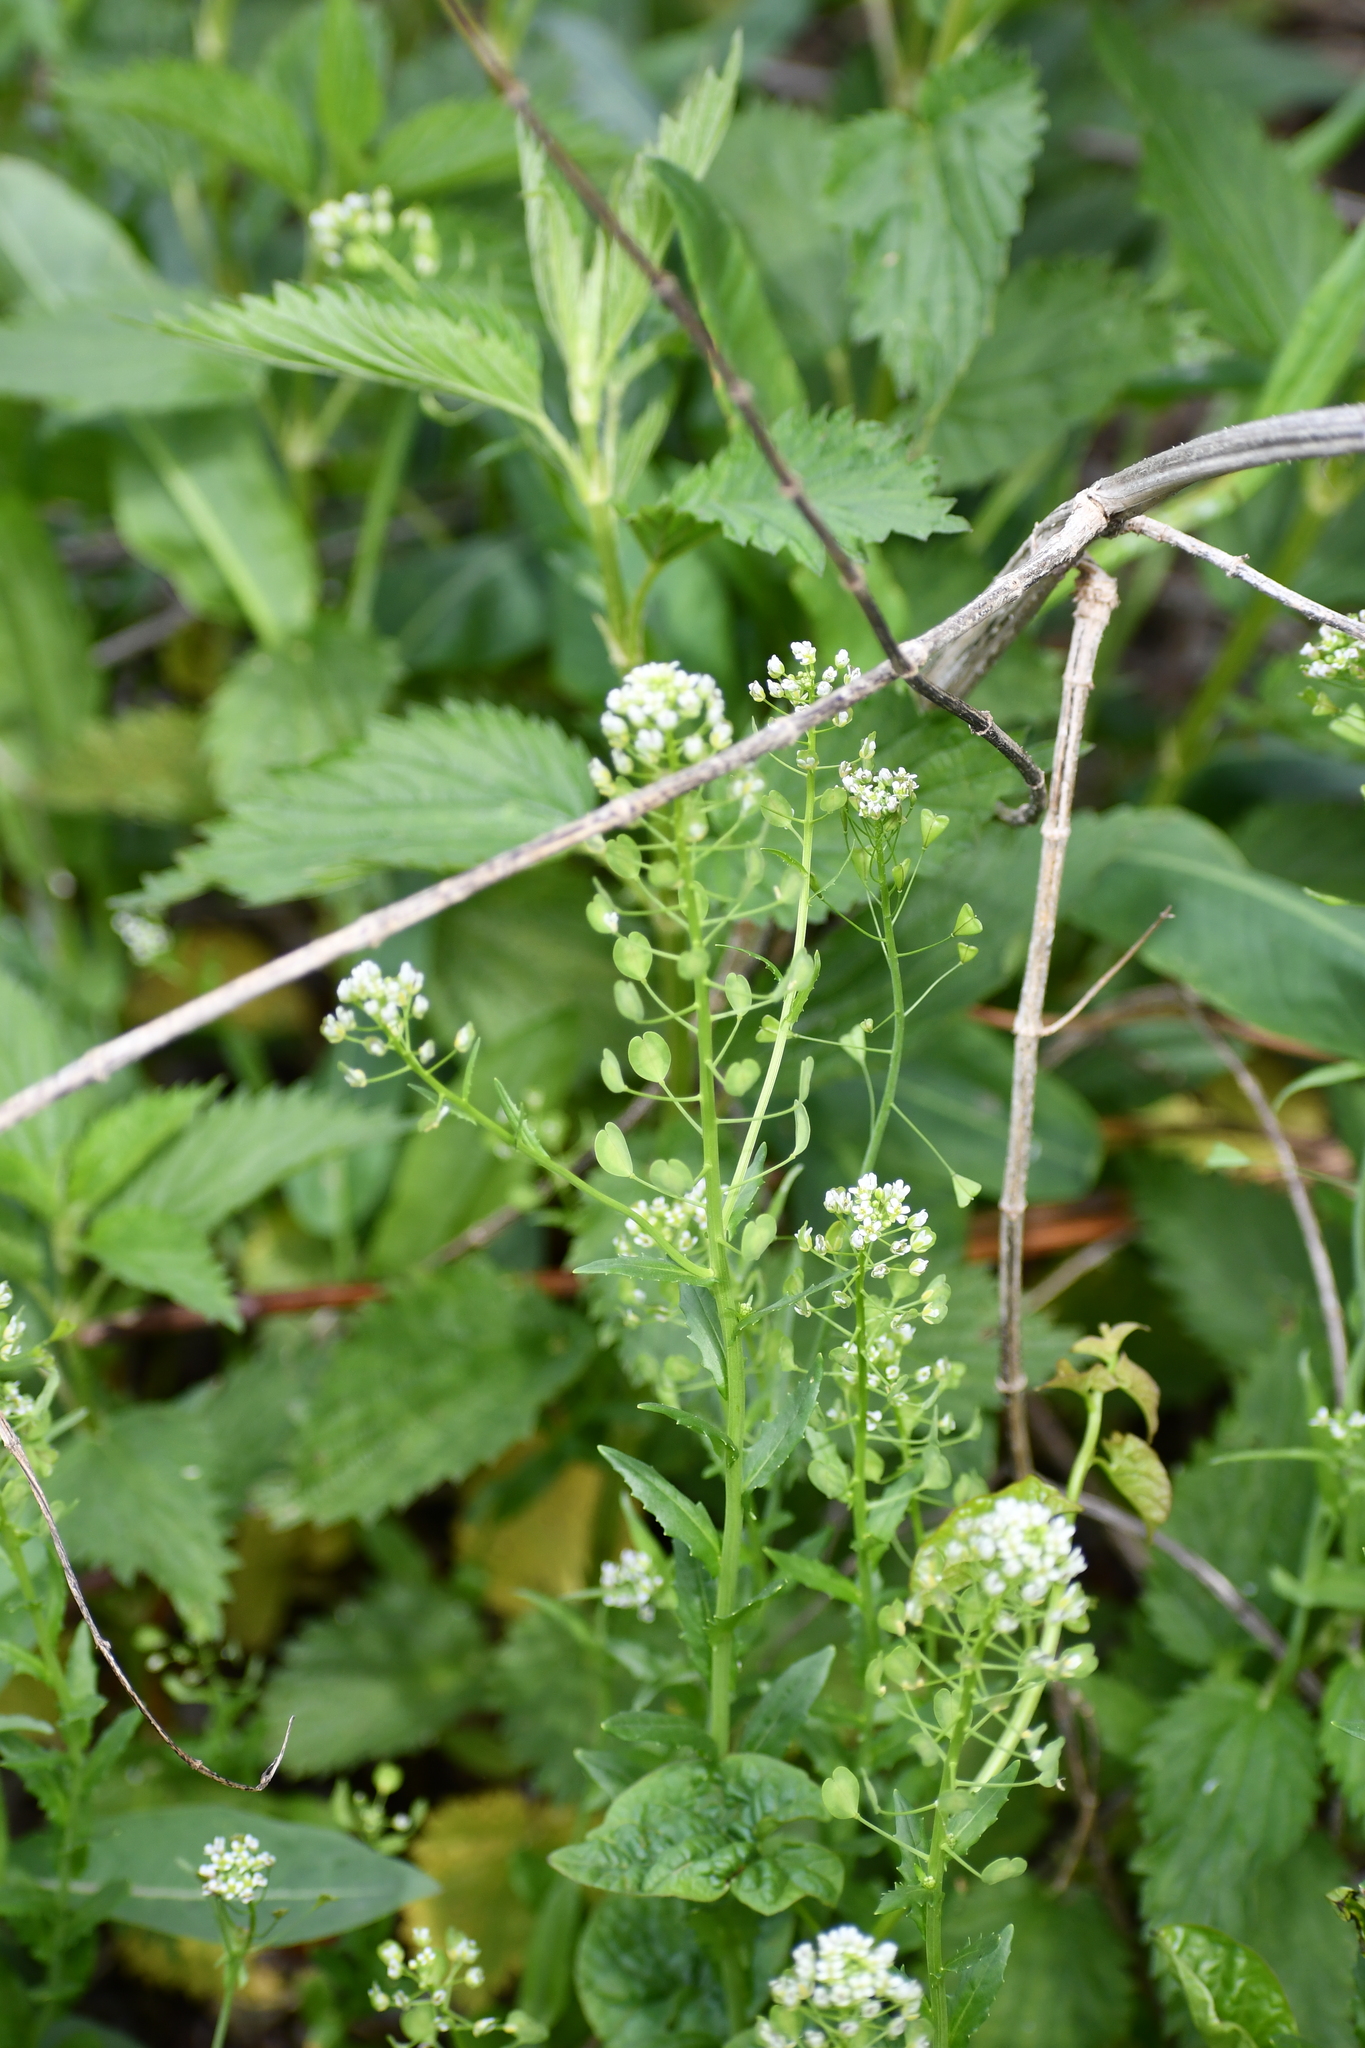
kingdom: Plantae
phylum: Tracheophyta
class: Magnoliopsida
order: Brassicales
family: Brassicaceae
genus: Thlaspi
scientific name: Thlaspi arvense
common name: Field pennycress
